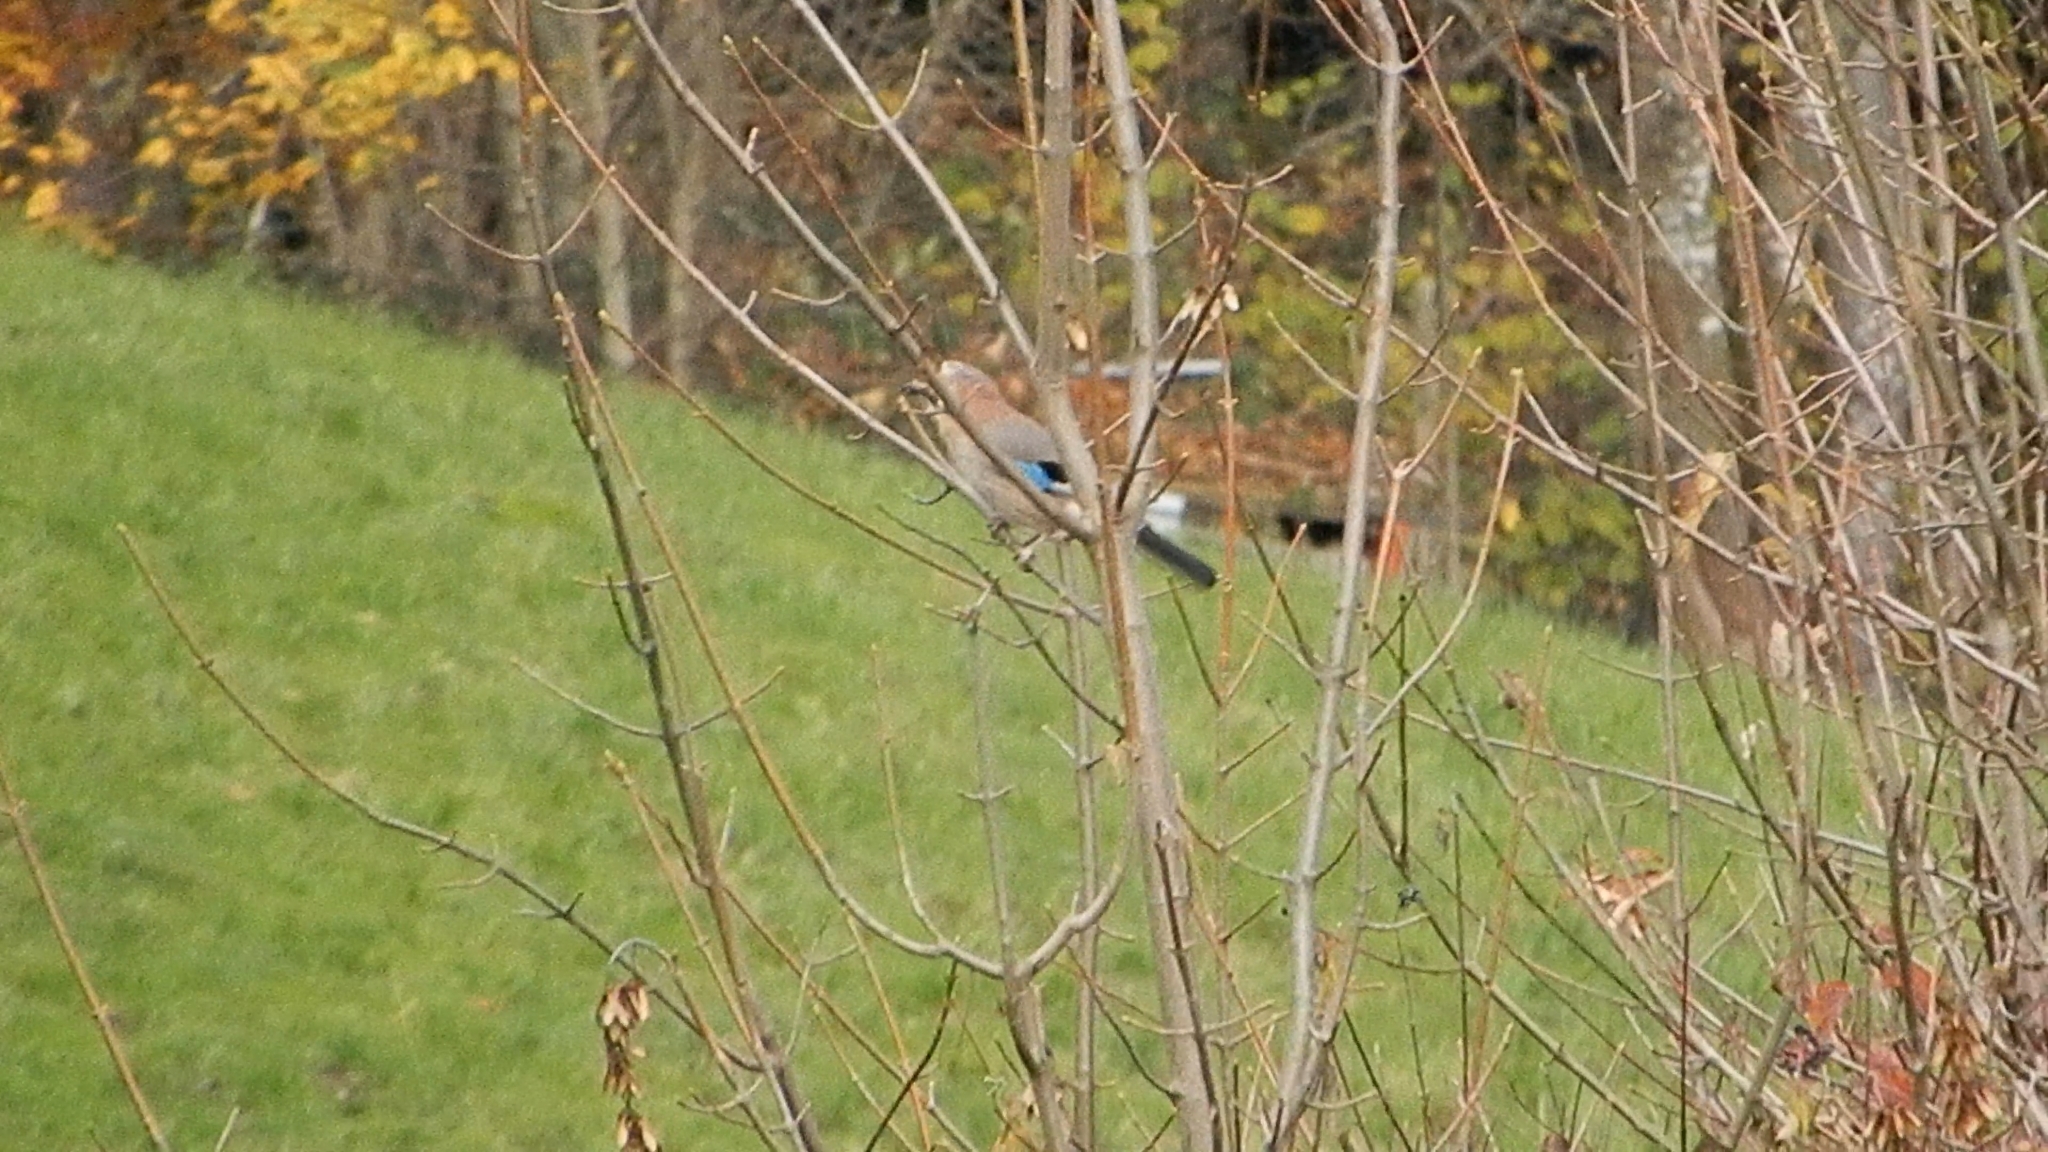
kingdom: Animalia
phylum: Chordata
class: Aves
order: Passeriformes
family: Corvidae
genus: Garrulus
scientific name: Garrulus glandarius
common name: Eurasian jay
